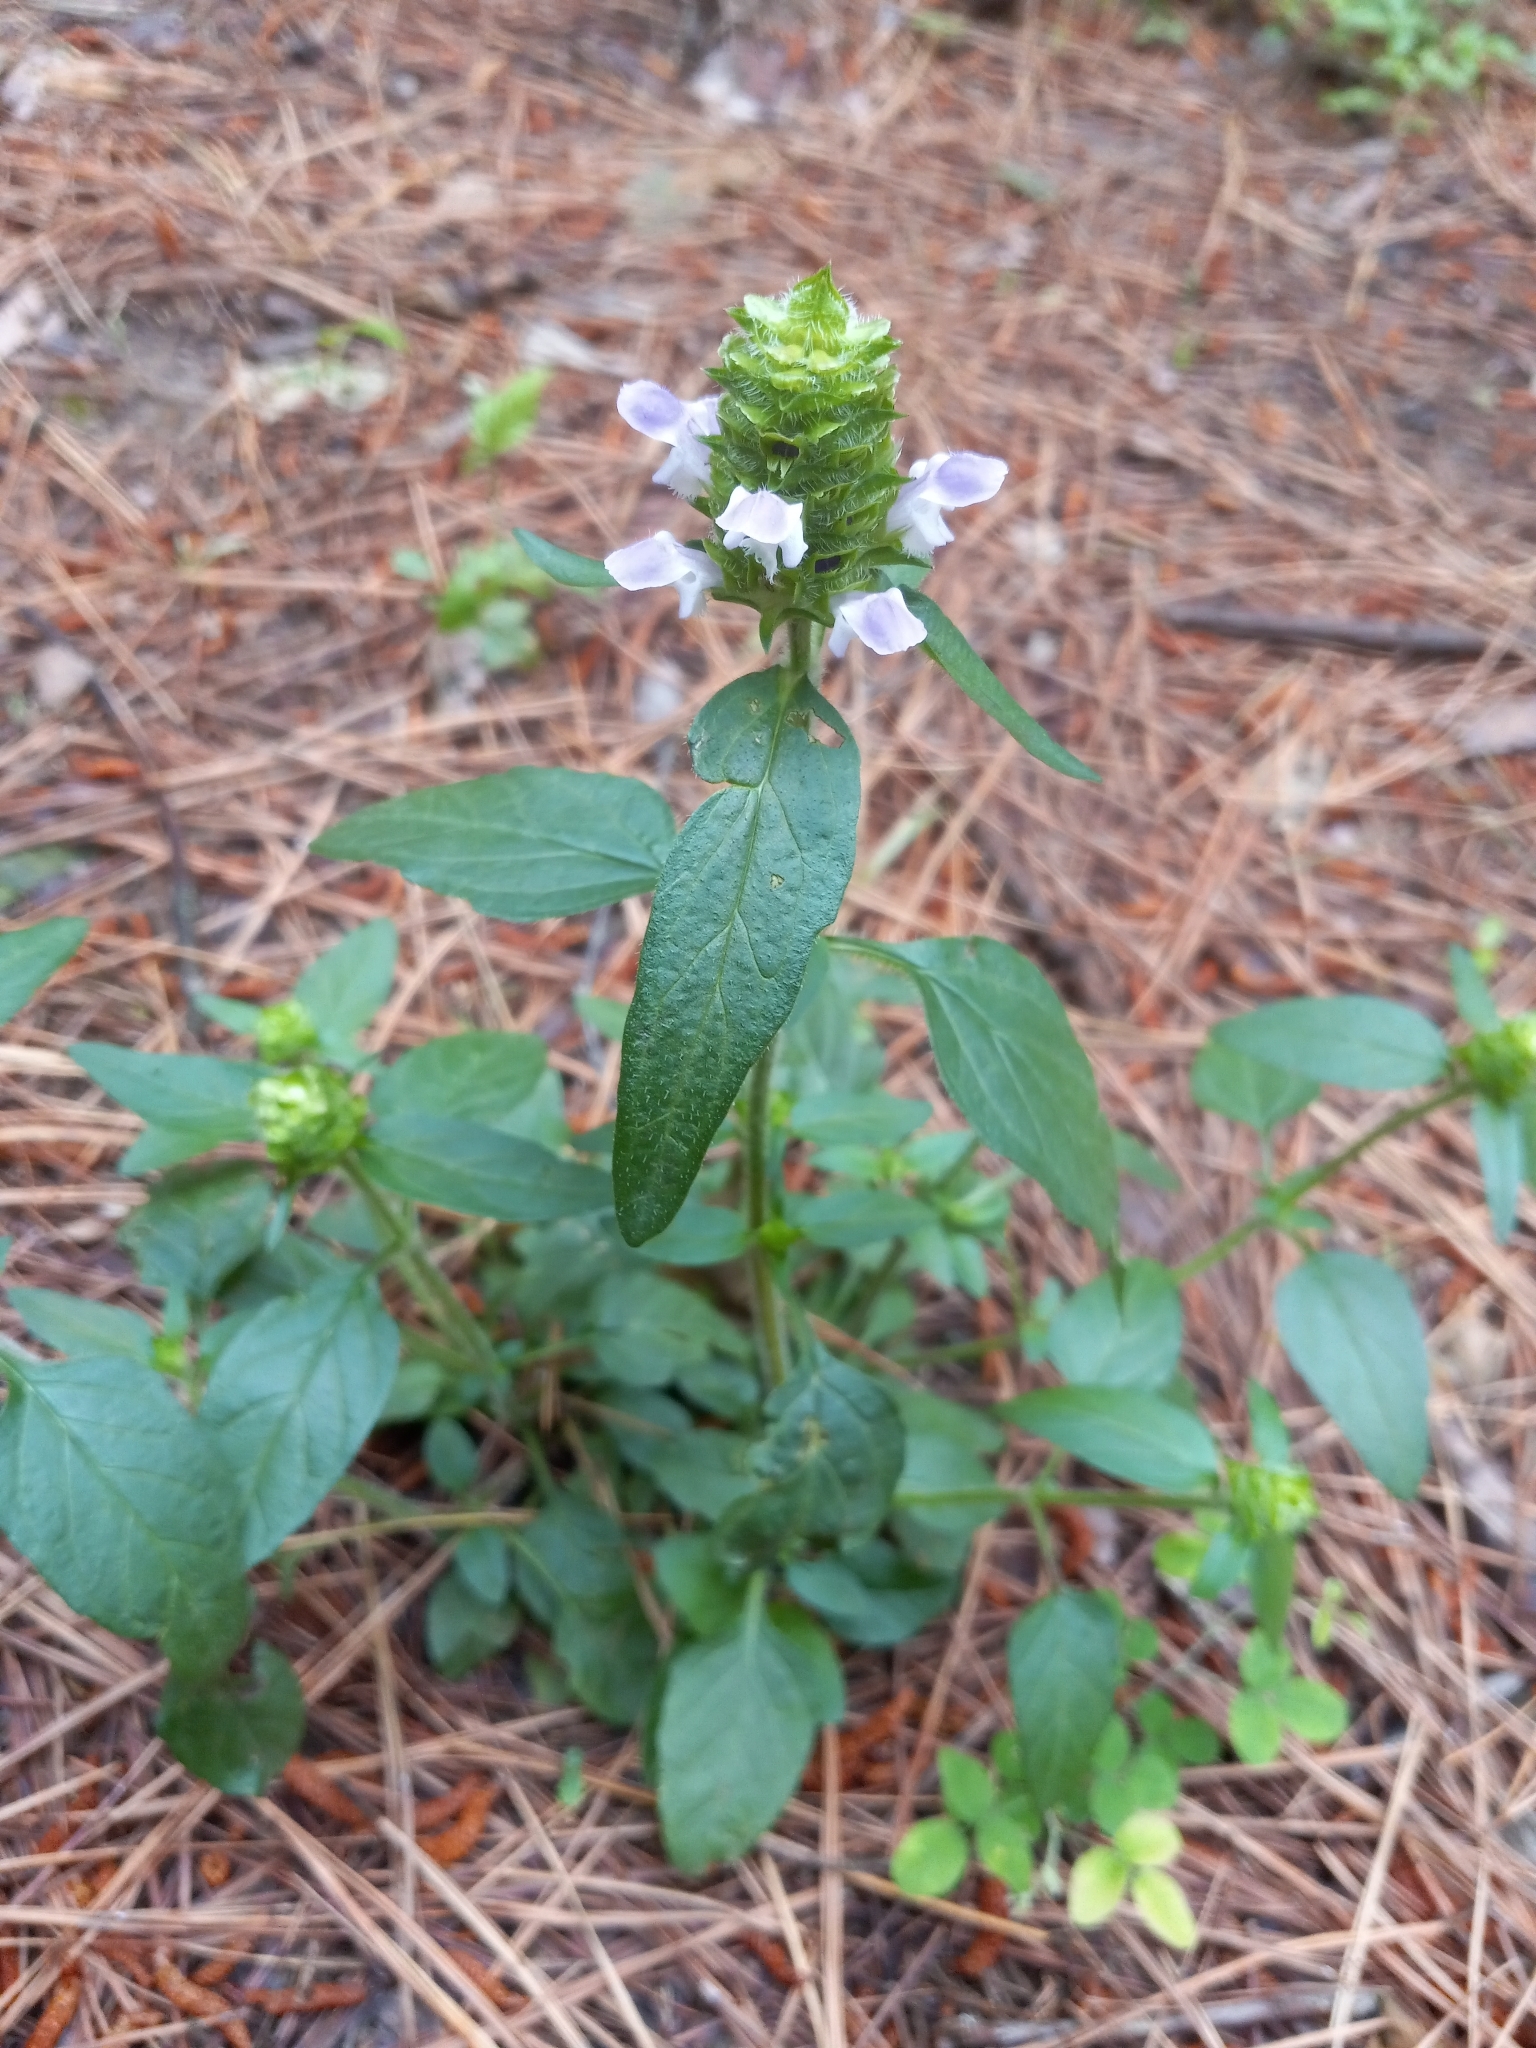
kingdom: Plantae
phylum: Tracheophyta
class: Magnoliopsida
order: Lamiales
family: Lamiaceae
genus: Prunella
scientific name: Prunella vulgaris
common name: Heal-all
